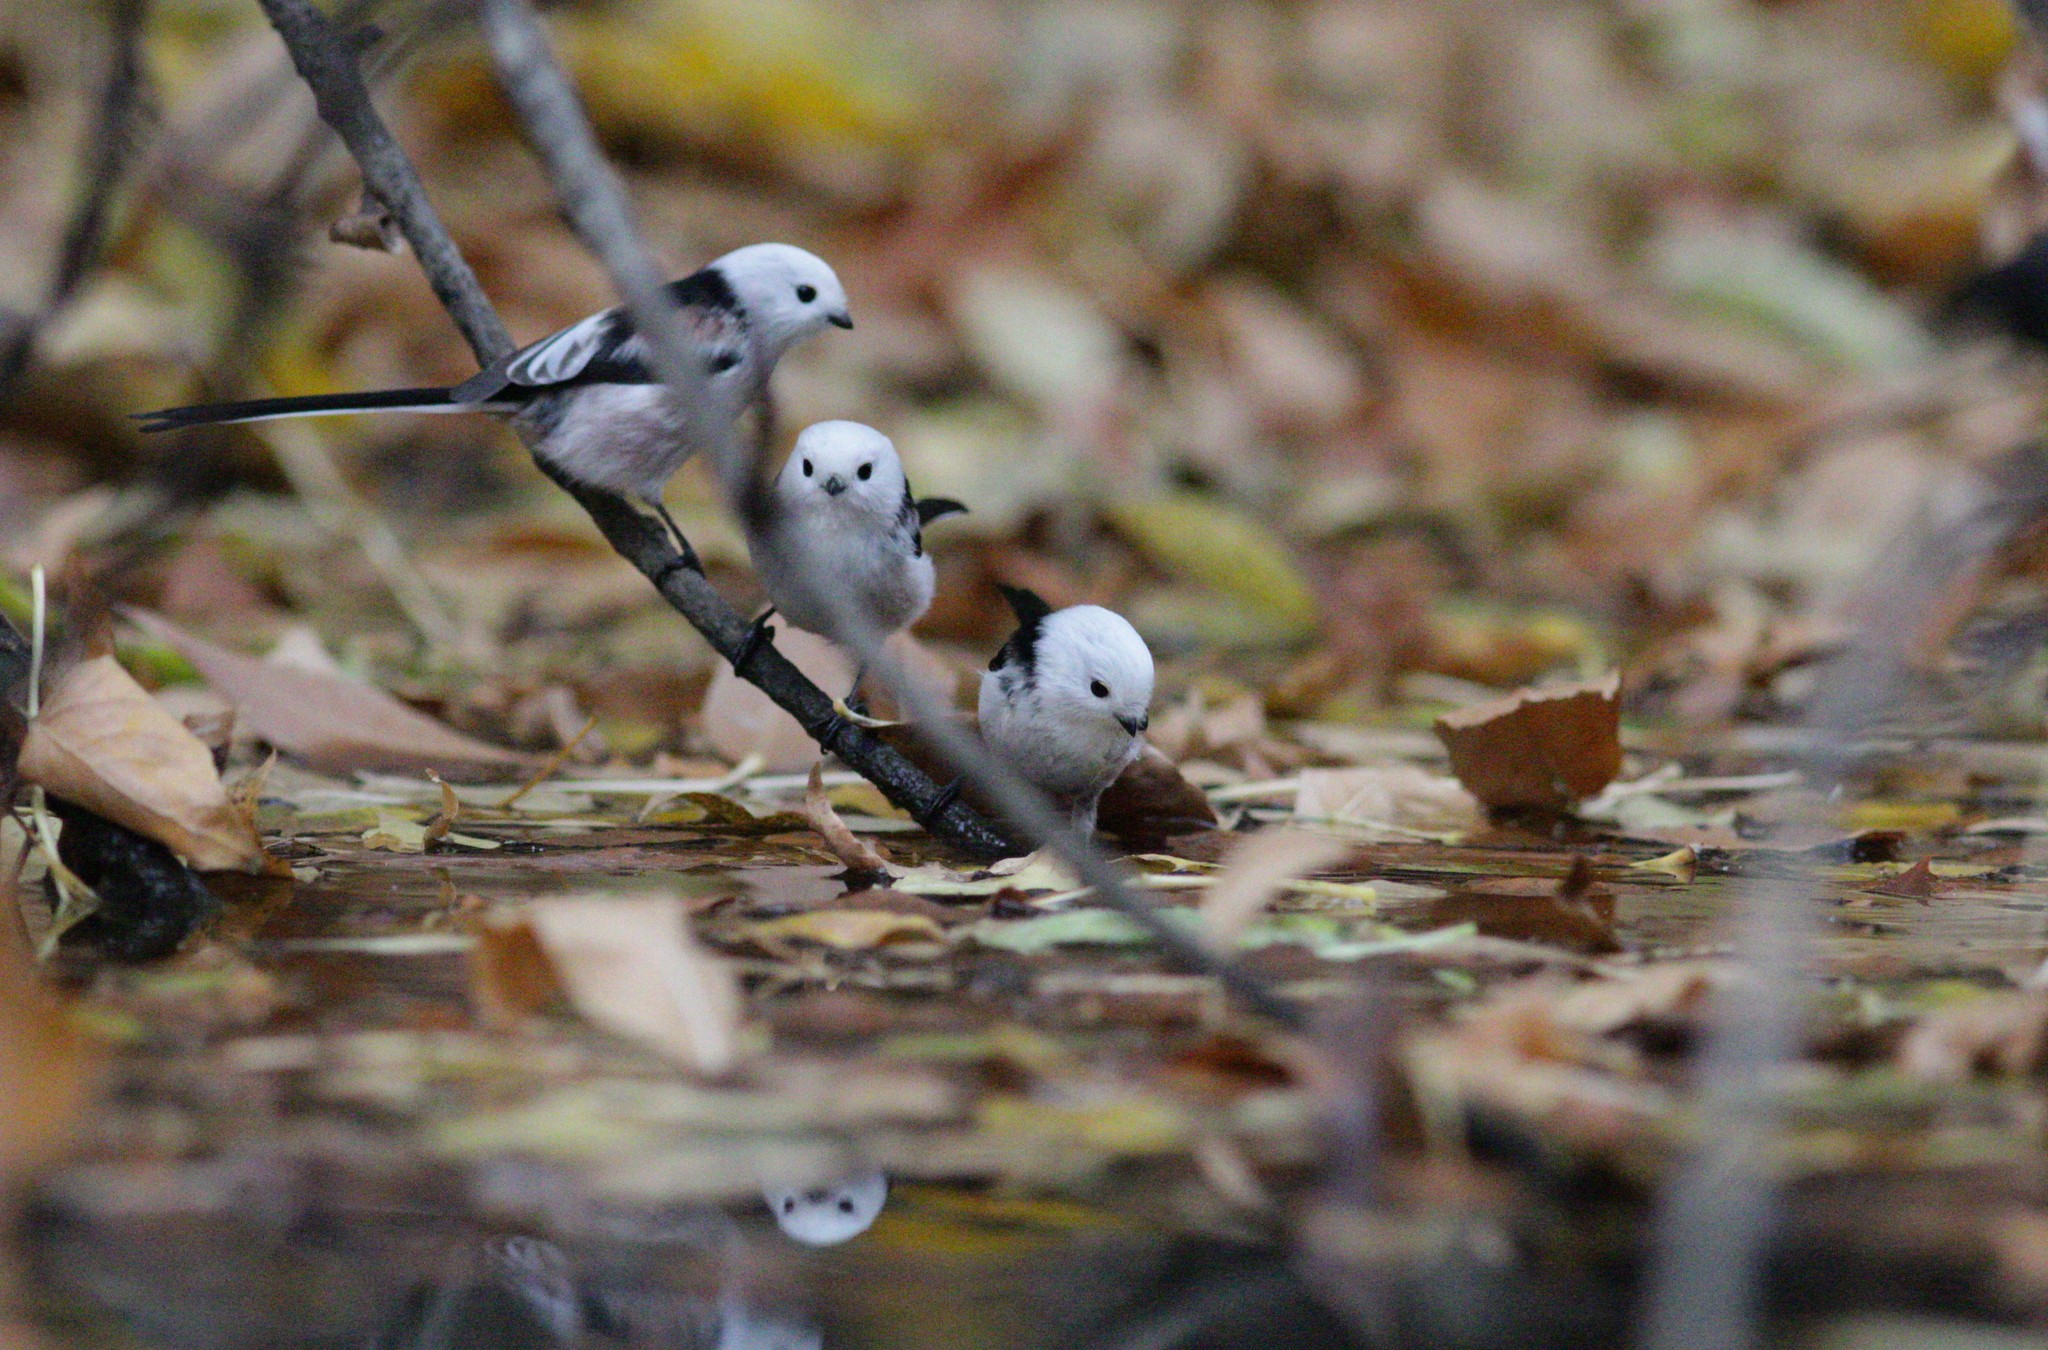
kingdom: Animalia
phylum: Chordata
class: Aves
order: Passeriformes
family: Aegithalidae
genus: Aegithalos
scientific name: Aegithalos caudatus
